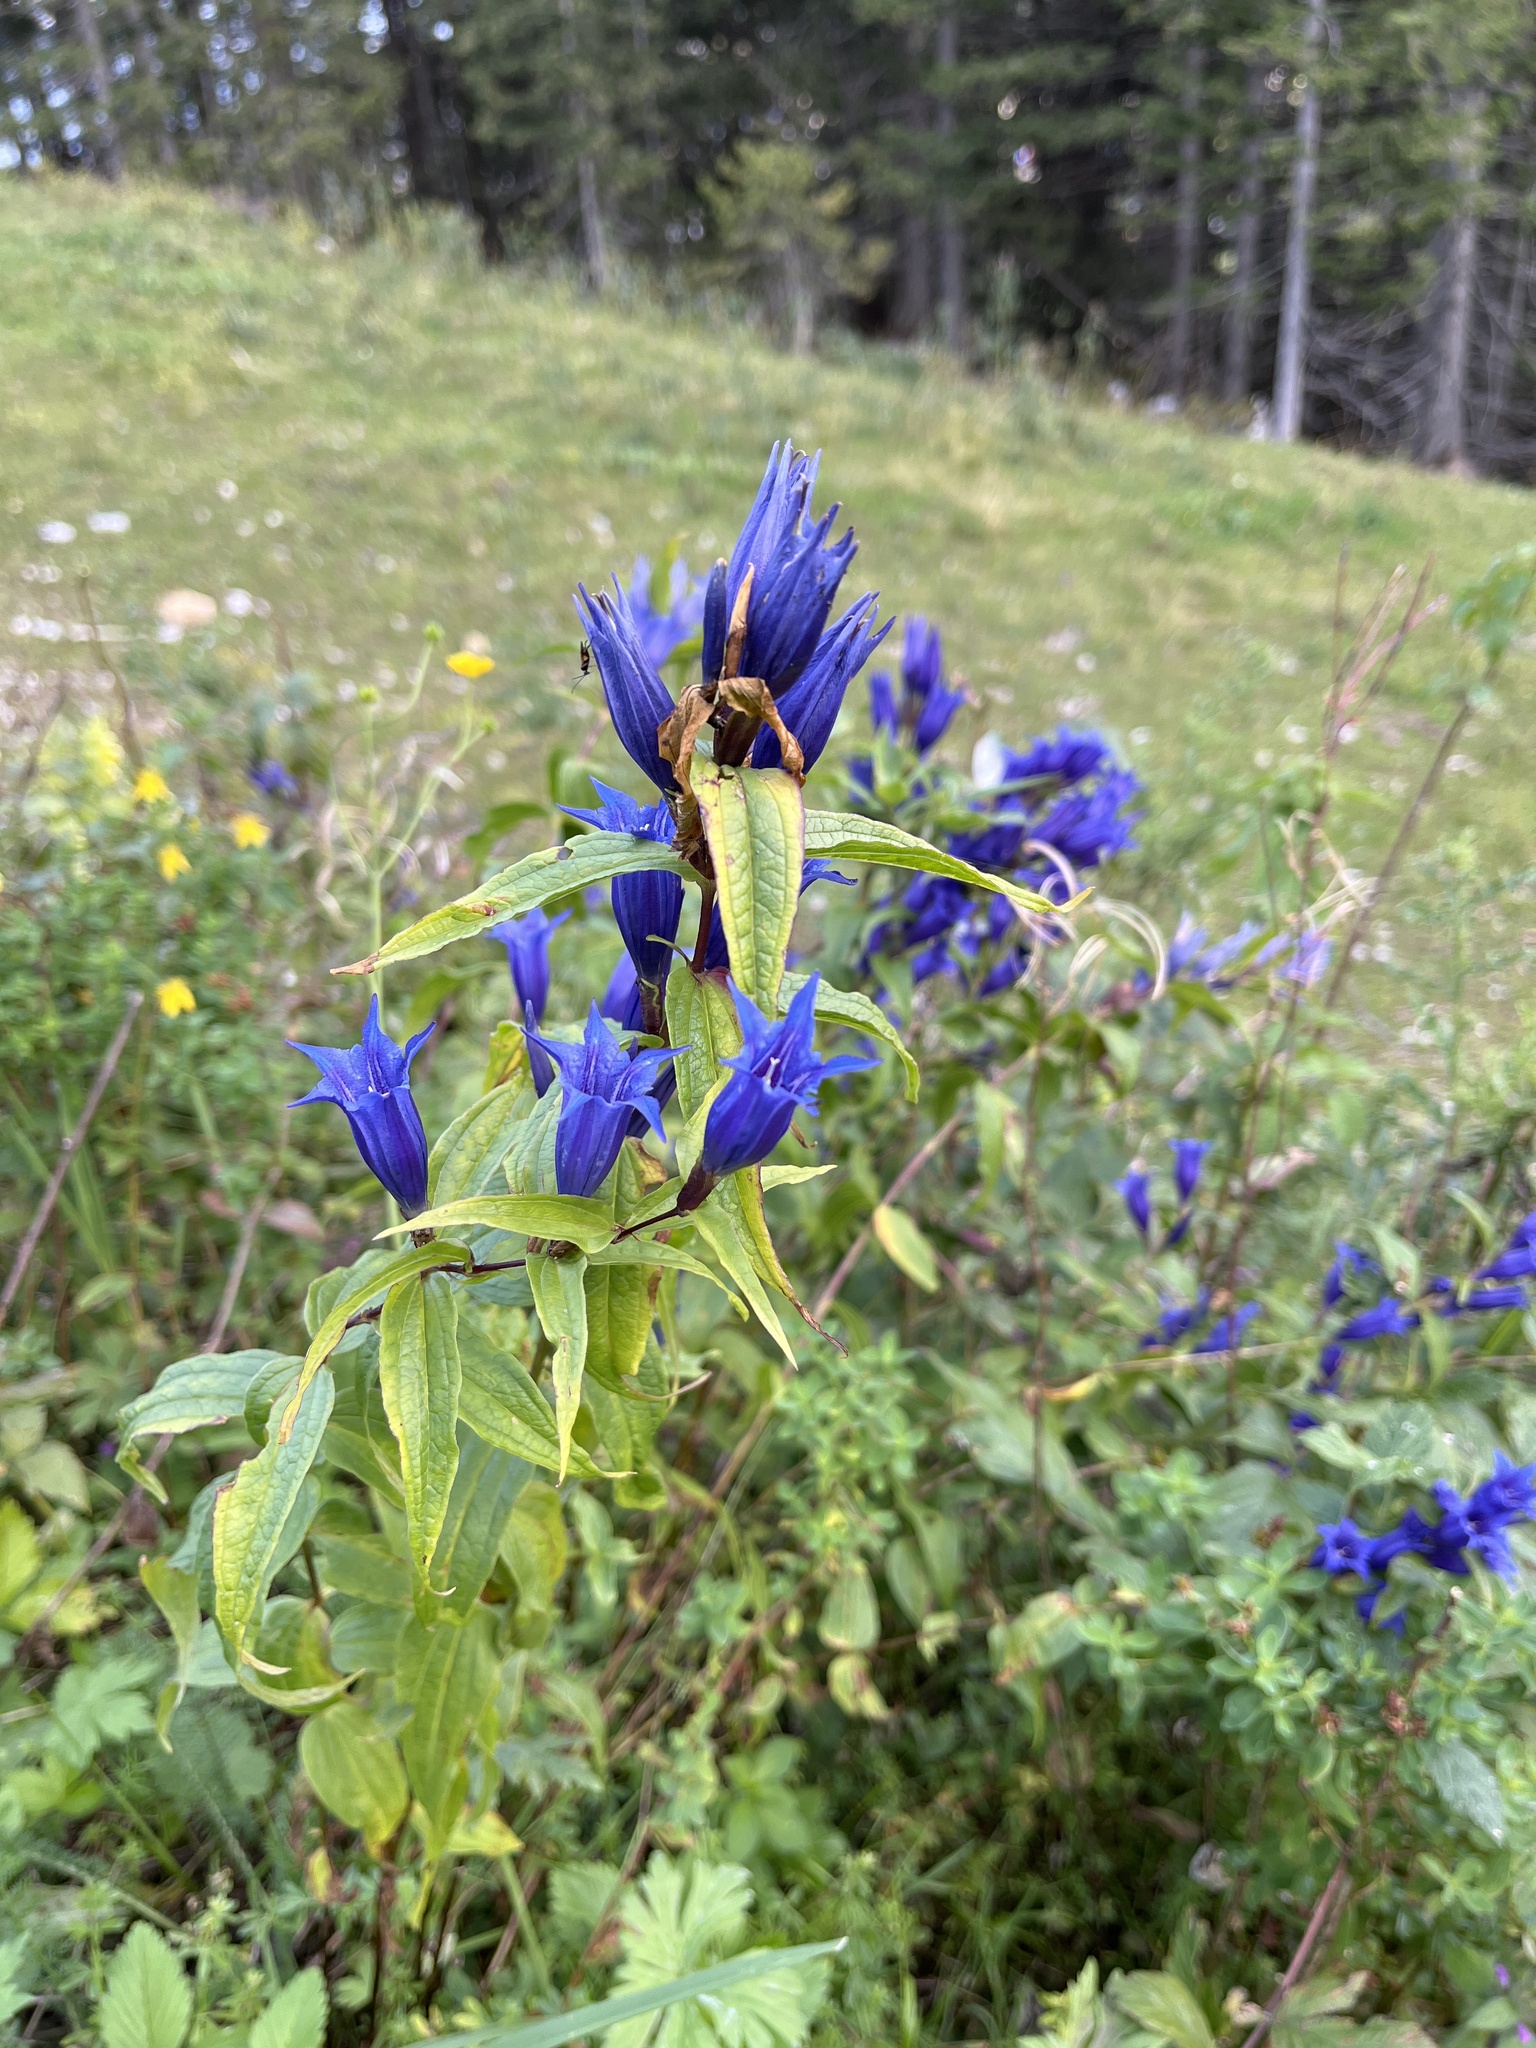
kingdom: Plantae
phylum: Tracheophyta
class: Magnoliopsida
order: Gentianales
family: Gentianaceae
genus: Gentiana
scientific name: Gentiana asclepiadea
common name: Willow gentian
